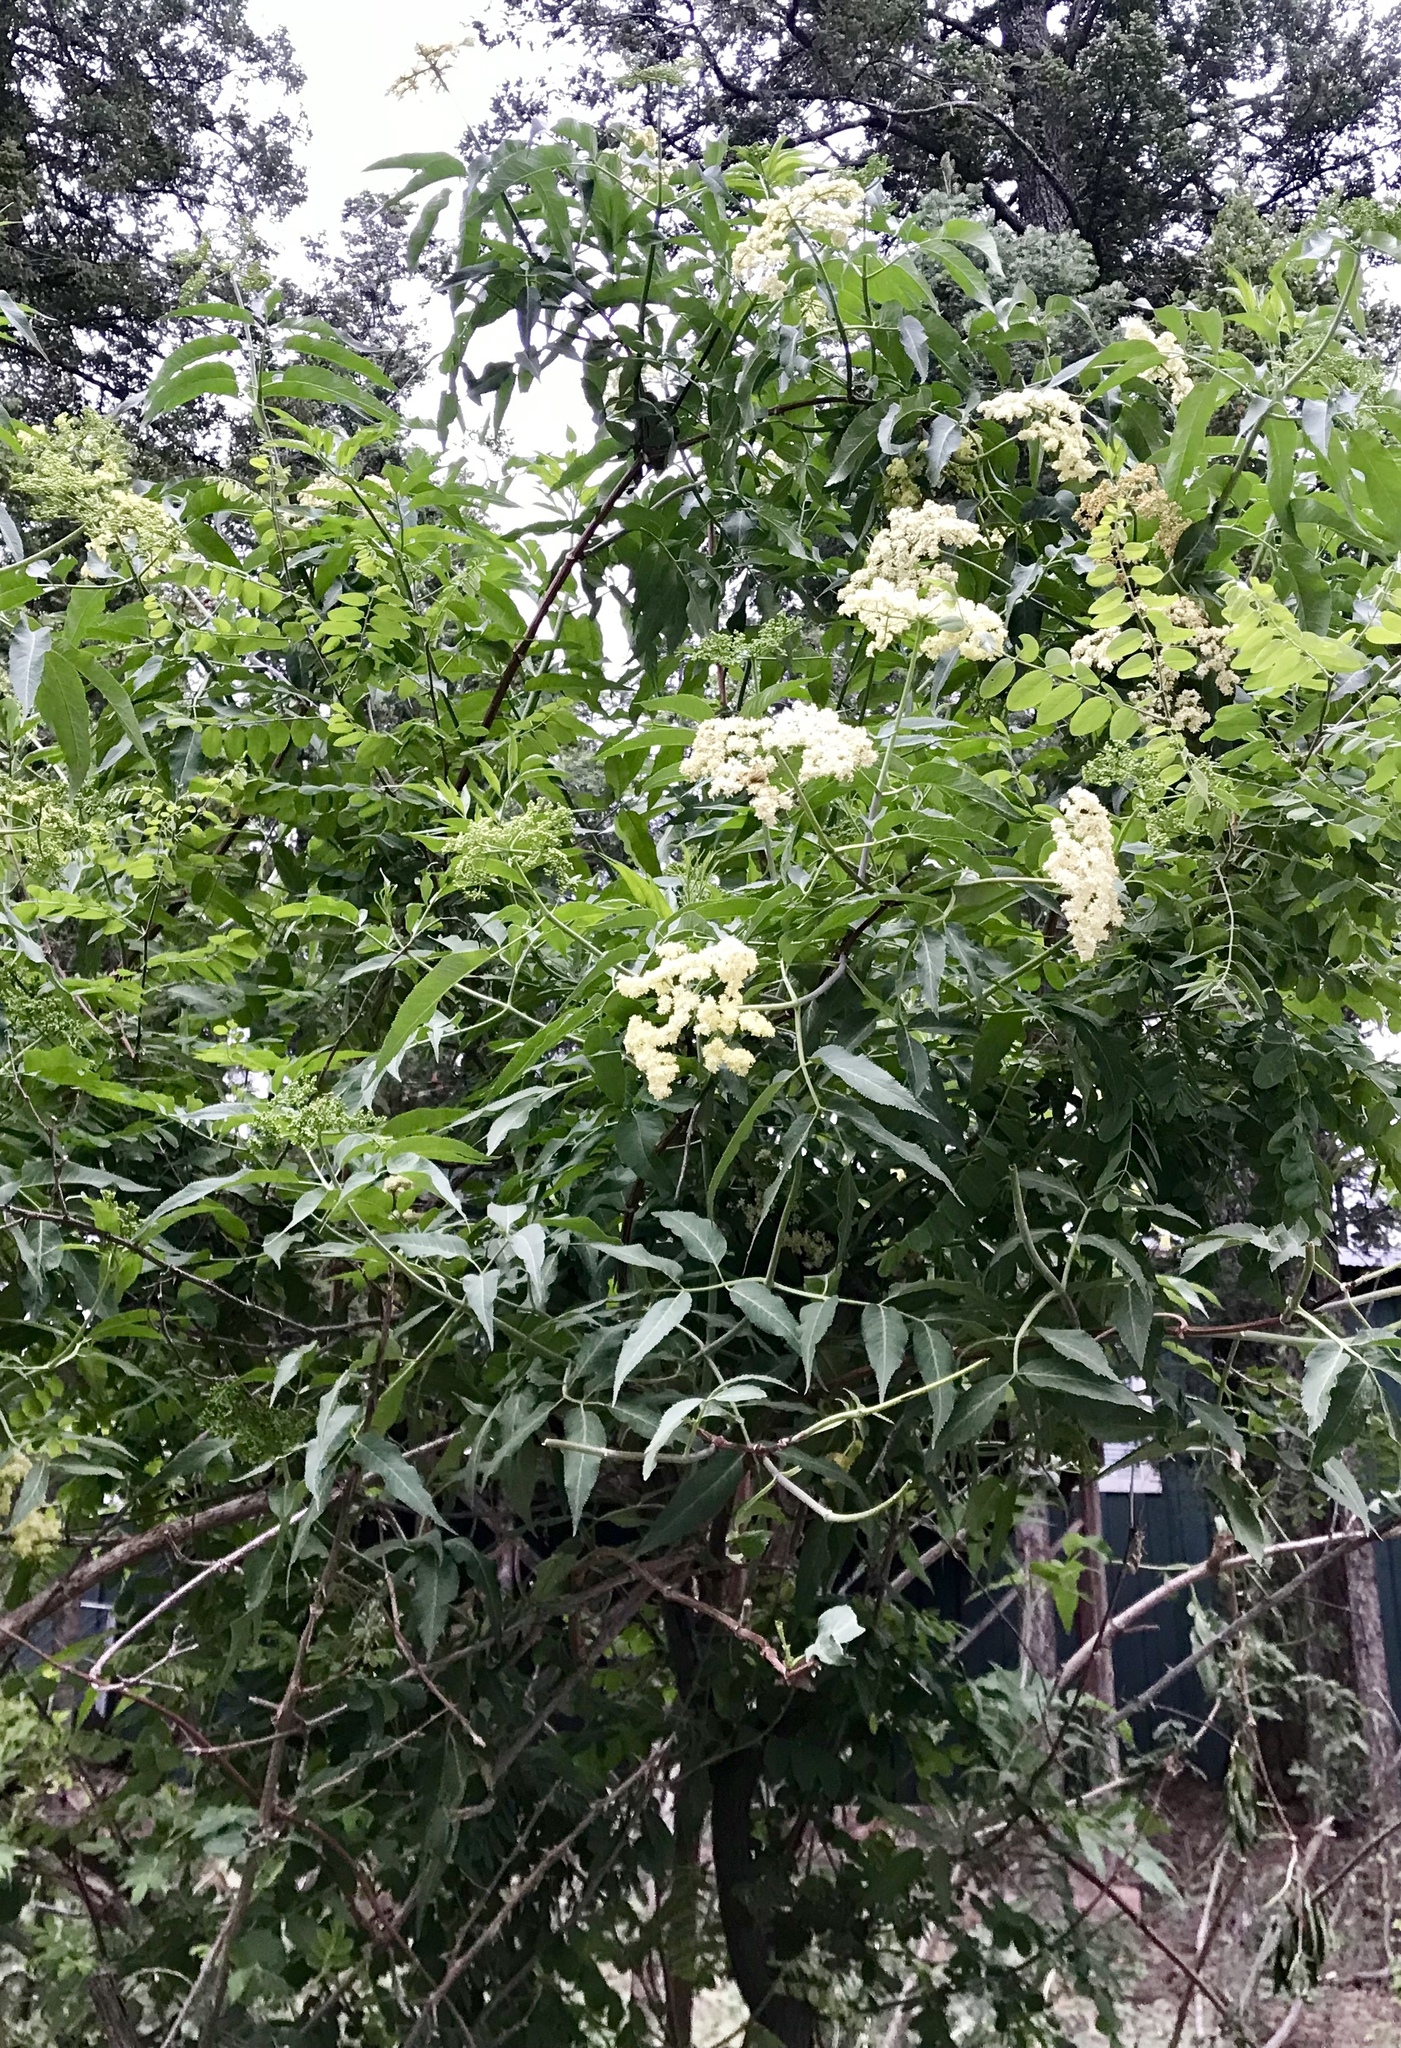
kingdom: Plantae
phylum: Tracheophyta
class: Magnoliopsida
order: Dipsacales
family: Viburnaceae
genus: Sambucus
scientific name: Sambucus racemosa
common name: Red-berried elder
